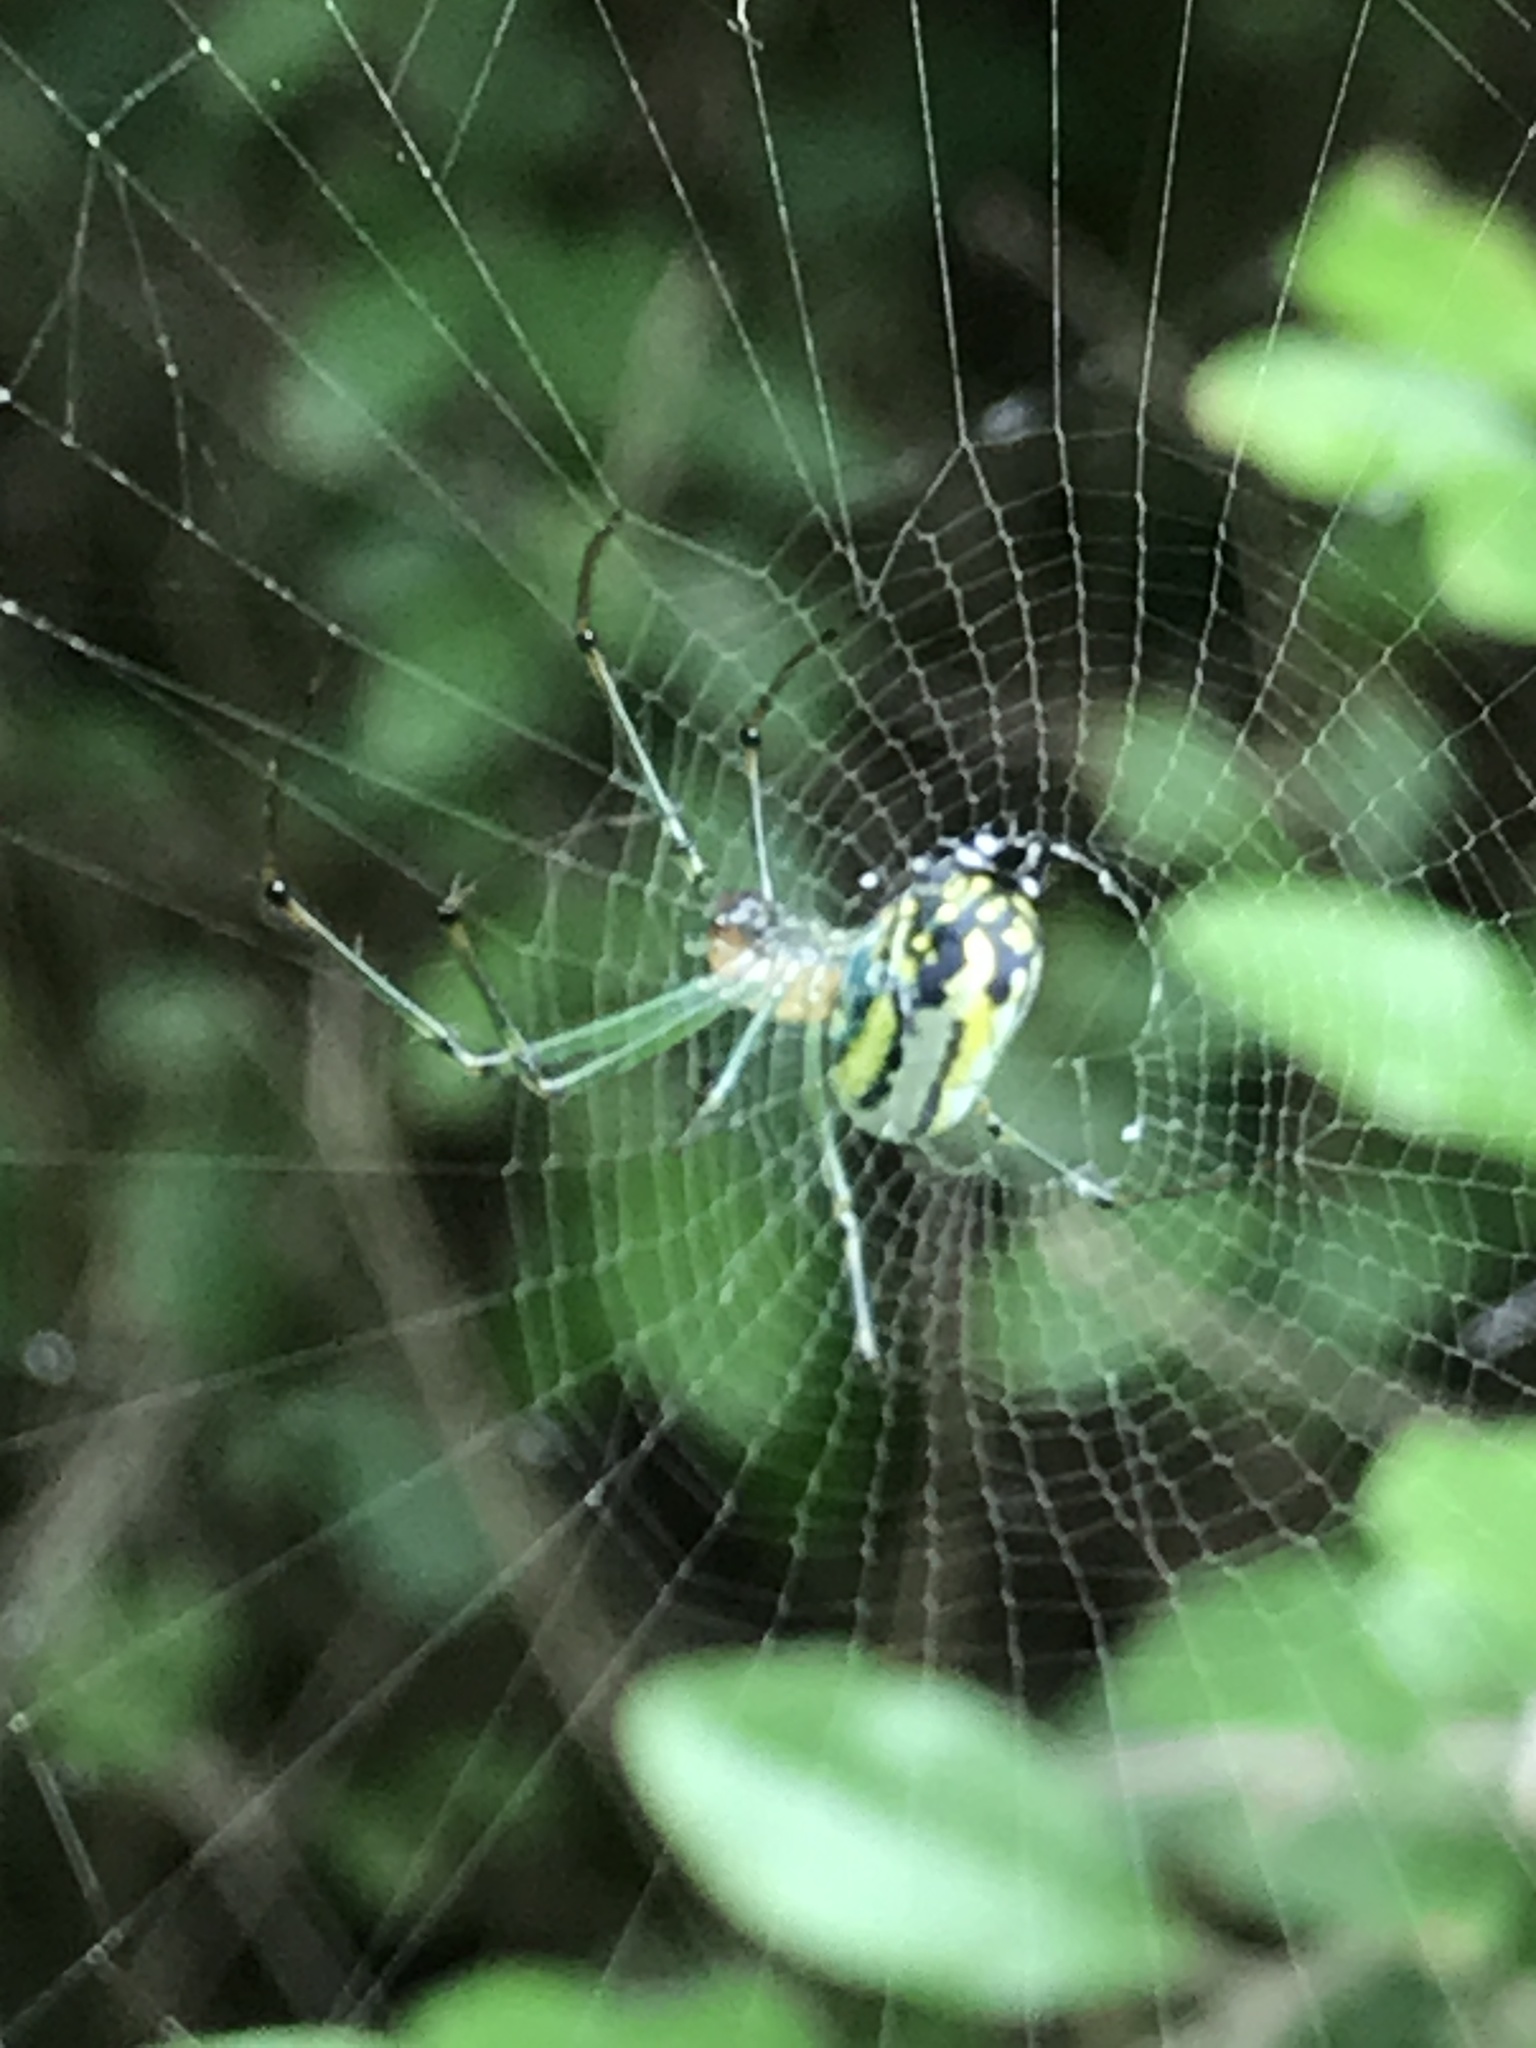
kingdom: Animalia
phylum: Arthropoda
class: Arachnida
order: Araneae
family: Tetragnathidae
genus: Leucauge
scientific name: Leucauge venusta
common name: Longjawed orb weavers
